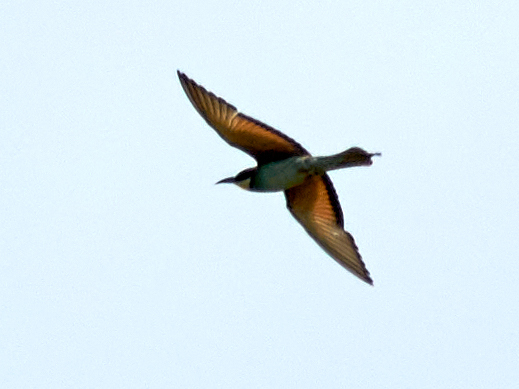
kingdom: Animalia
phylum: Chordata
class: Aves
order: Coraciiformes
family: Meropidae
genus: Merops
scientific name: Merops apiaster
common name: European bee-eater
